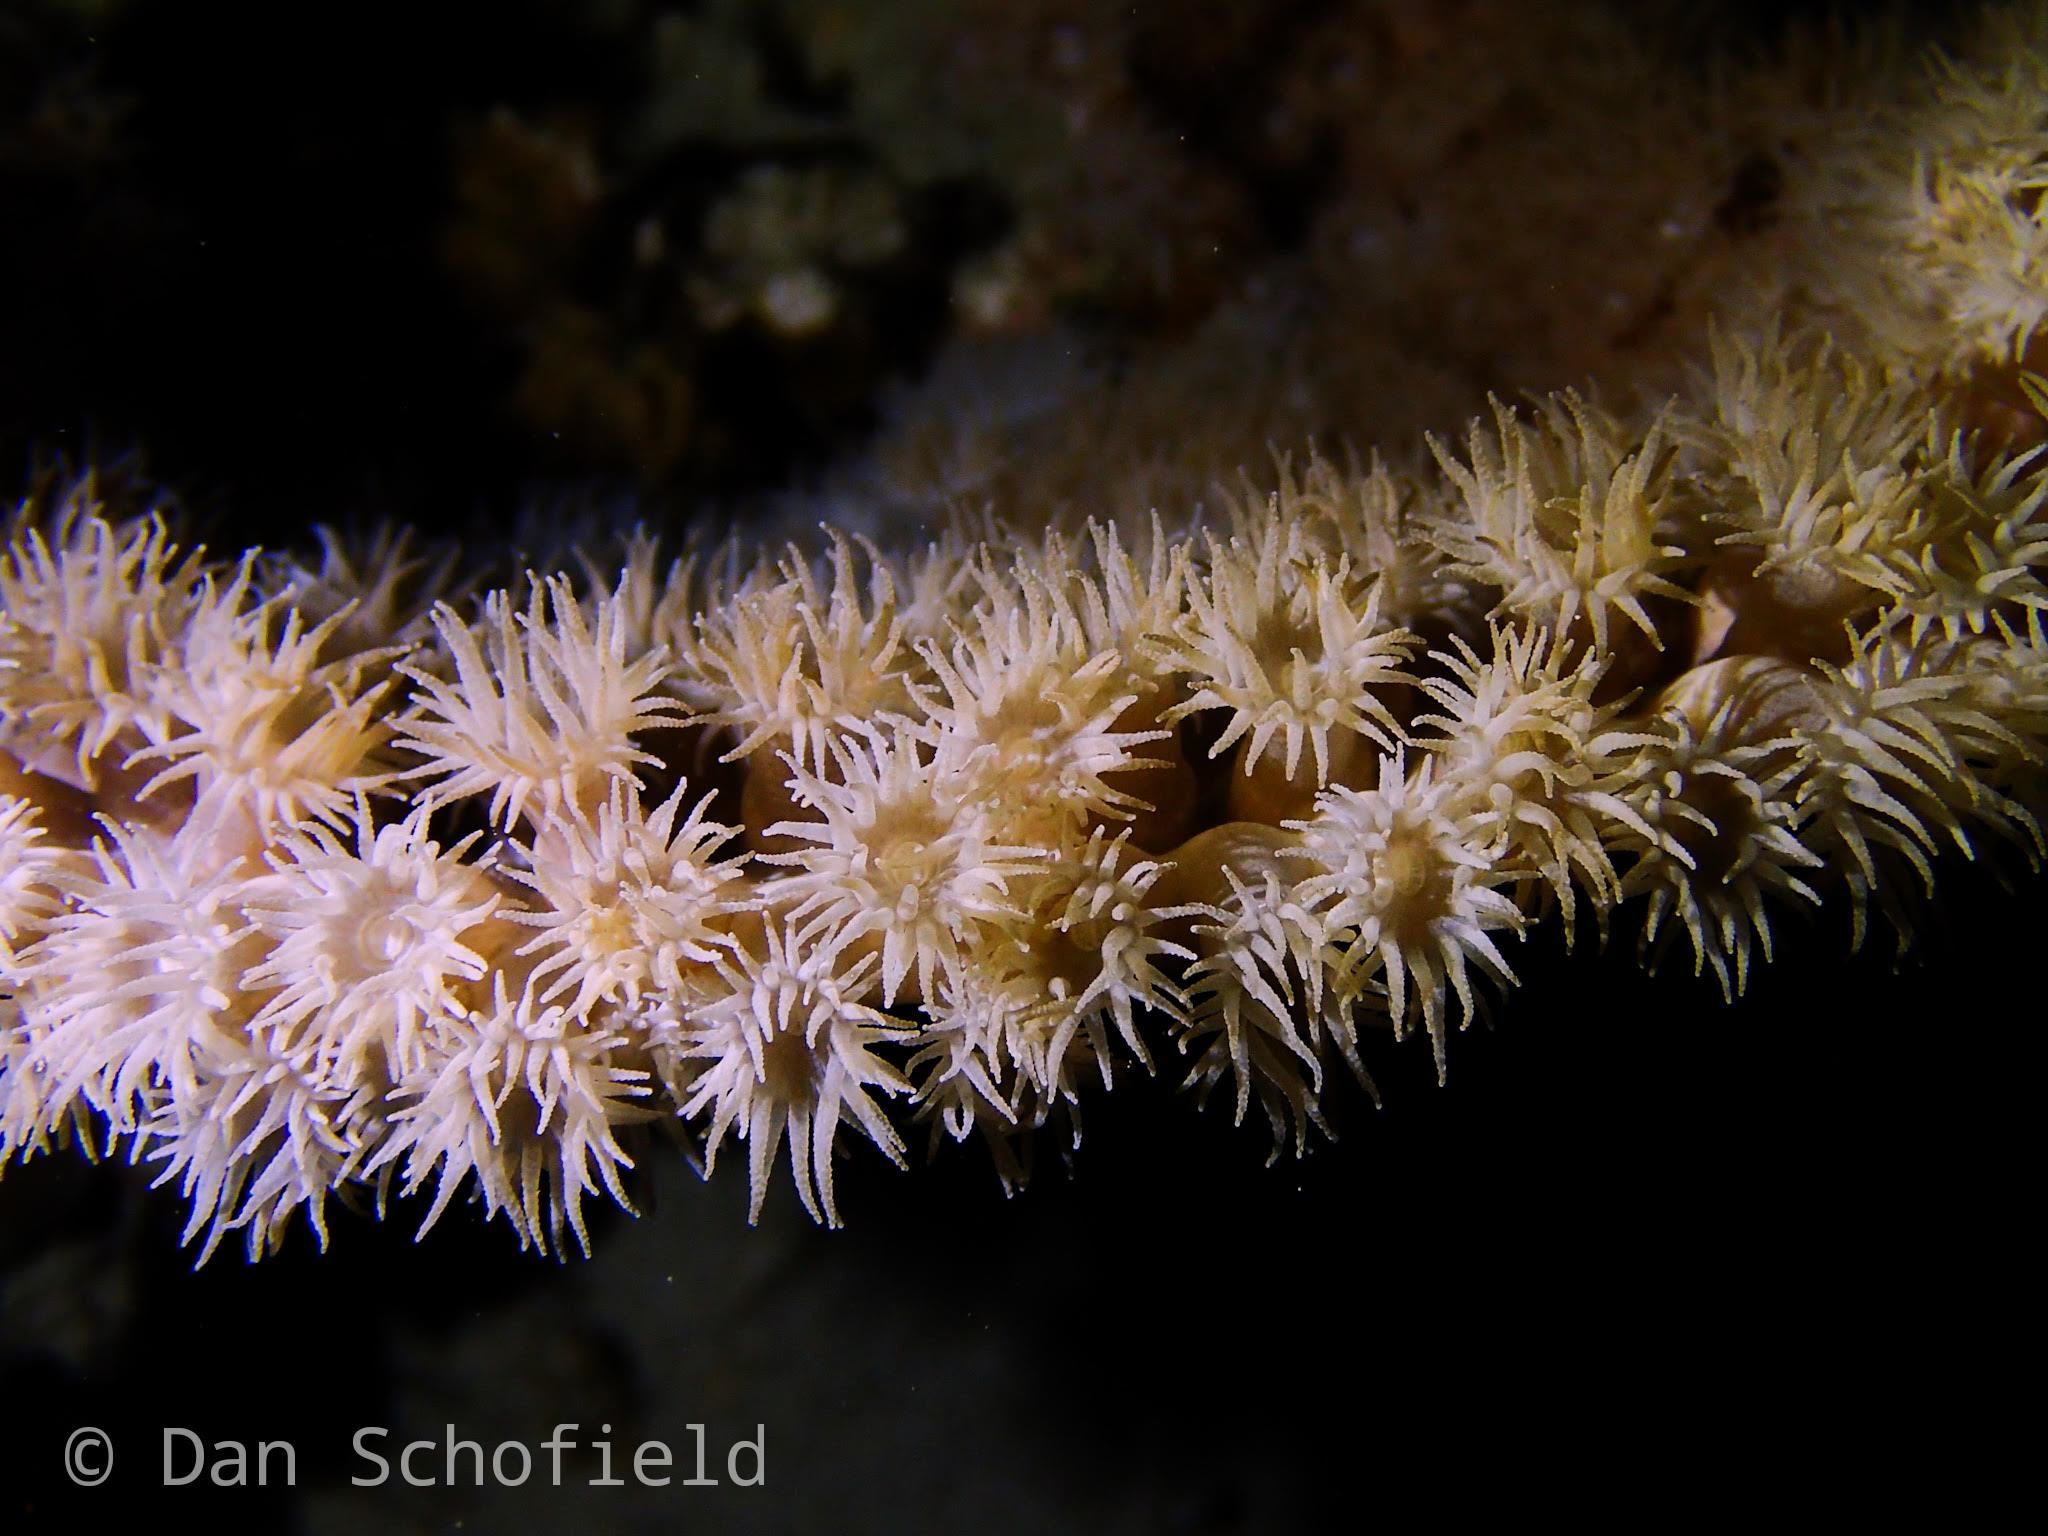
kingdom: Animalia
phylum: Cnidaria
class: Anthozoa
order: Scleractinia
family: Dendrophylliidae
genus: Duncanopsammia
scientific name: Duncanopsammia peltata
